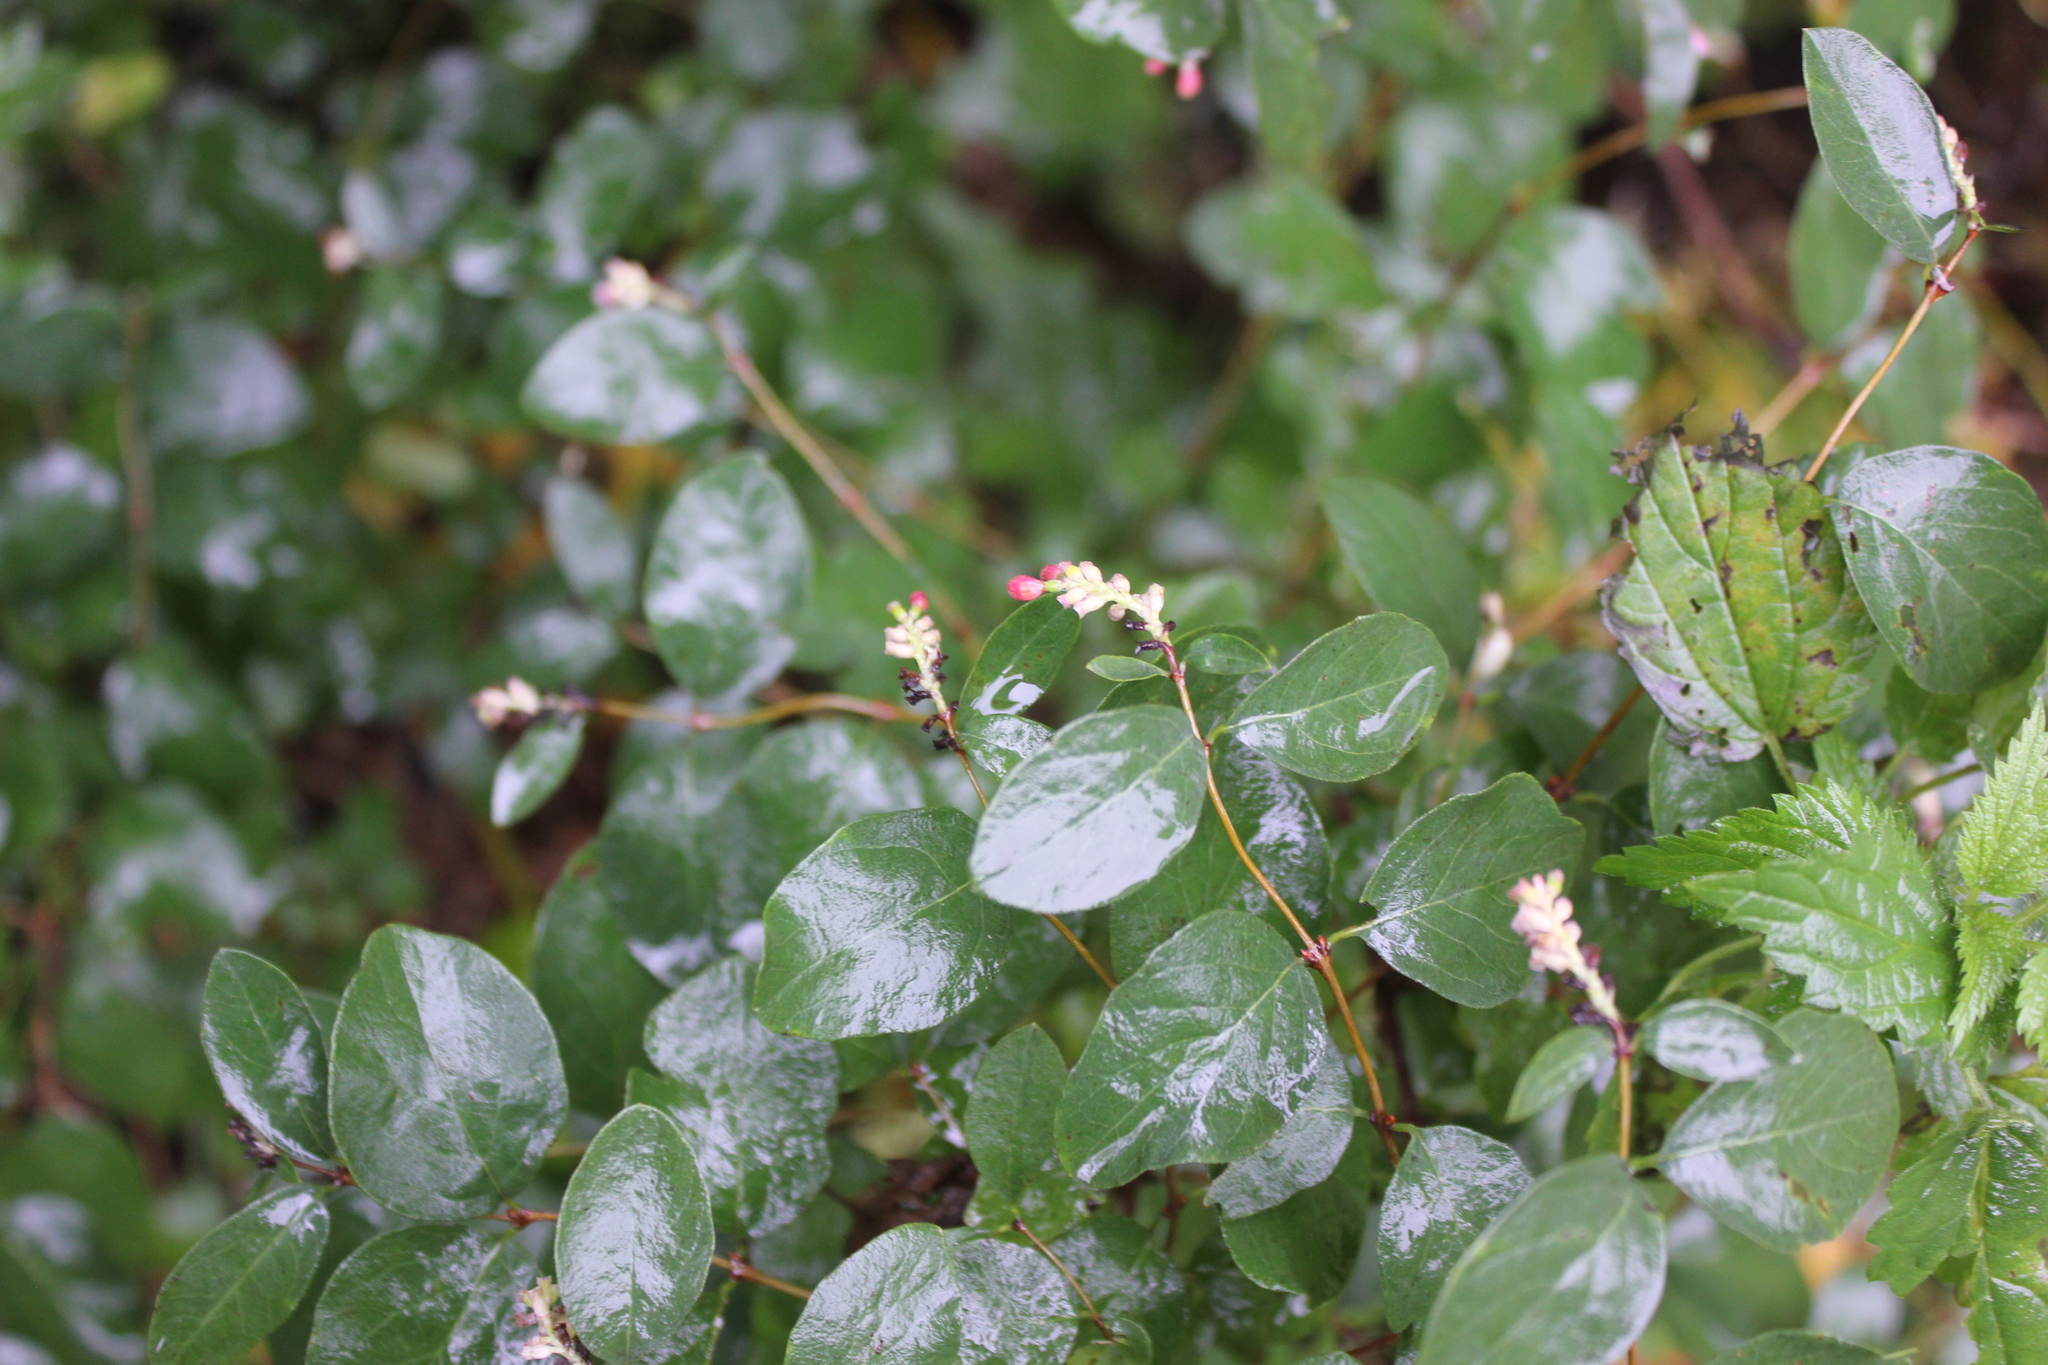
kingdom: Plantae
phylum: Tracheophyta
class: Magnoliopsida
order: Dipsacales
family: Caprifoliaceae
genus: Symphoricarpos
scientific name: Symphoricarpos albus
